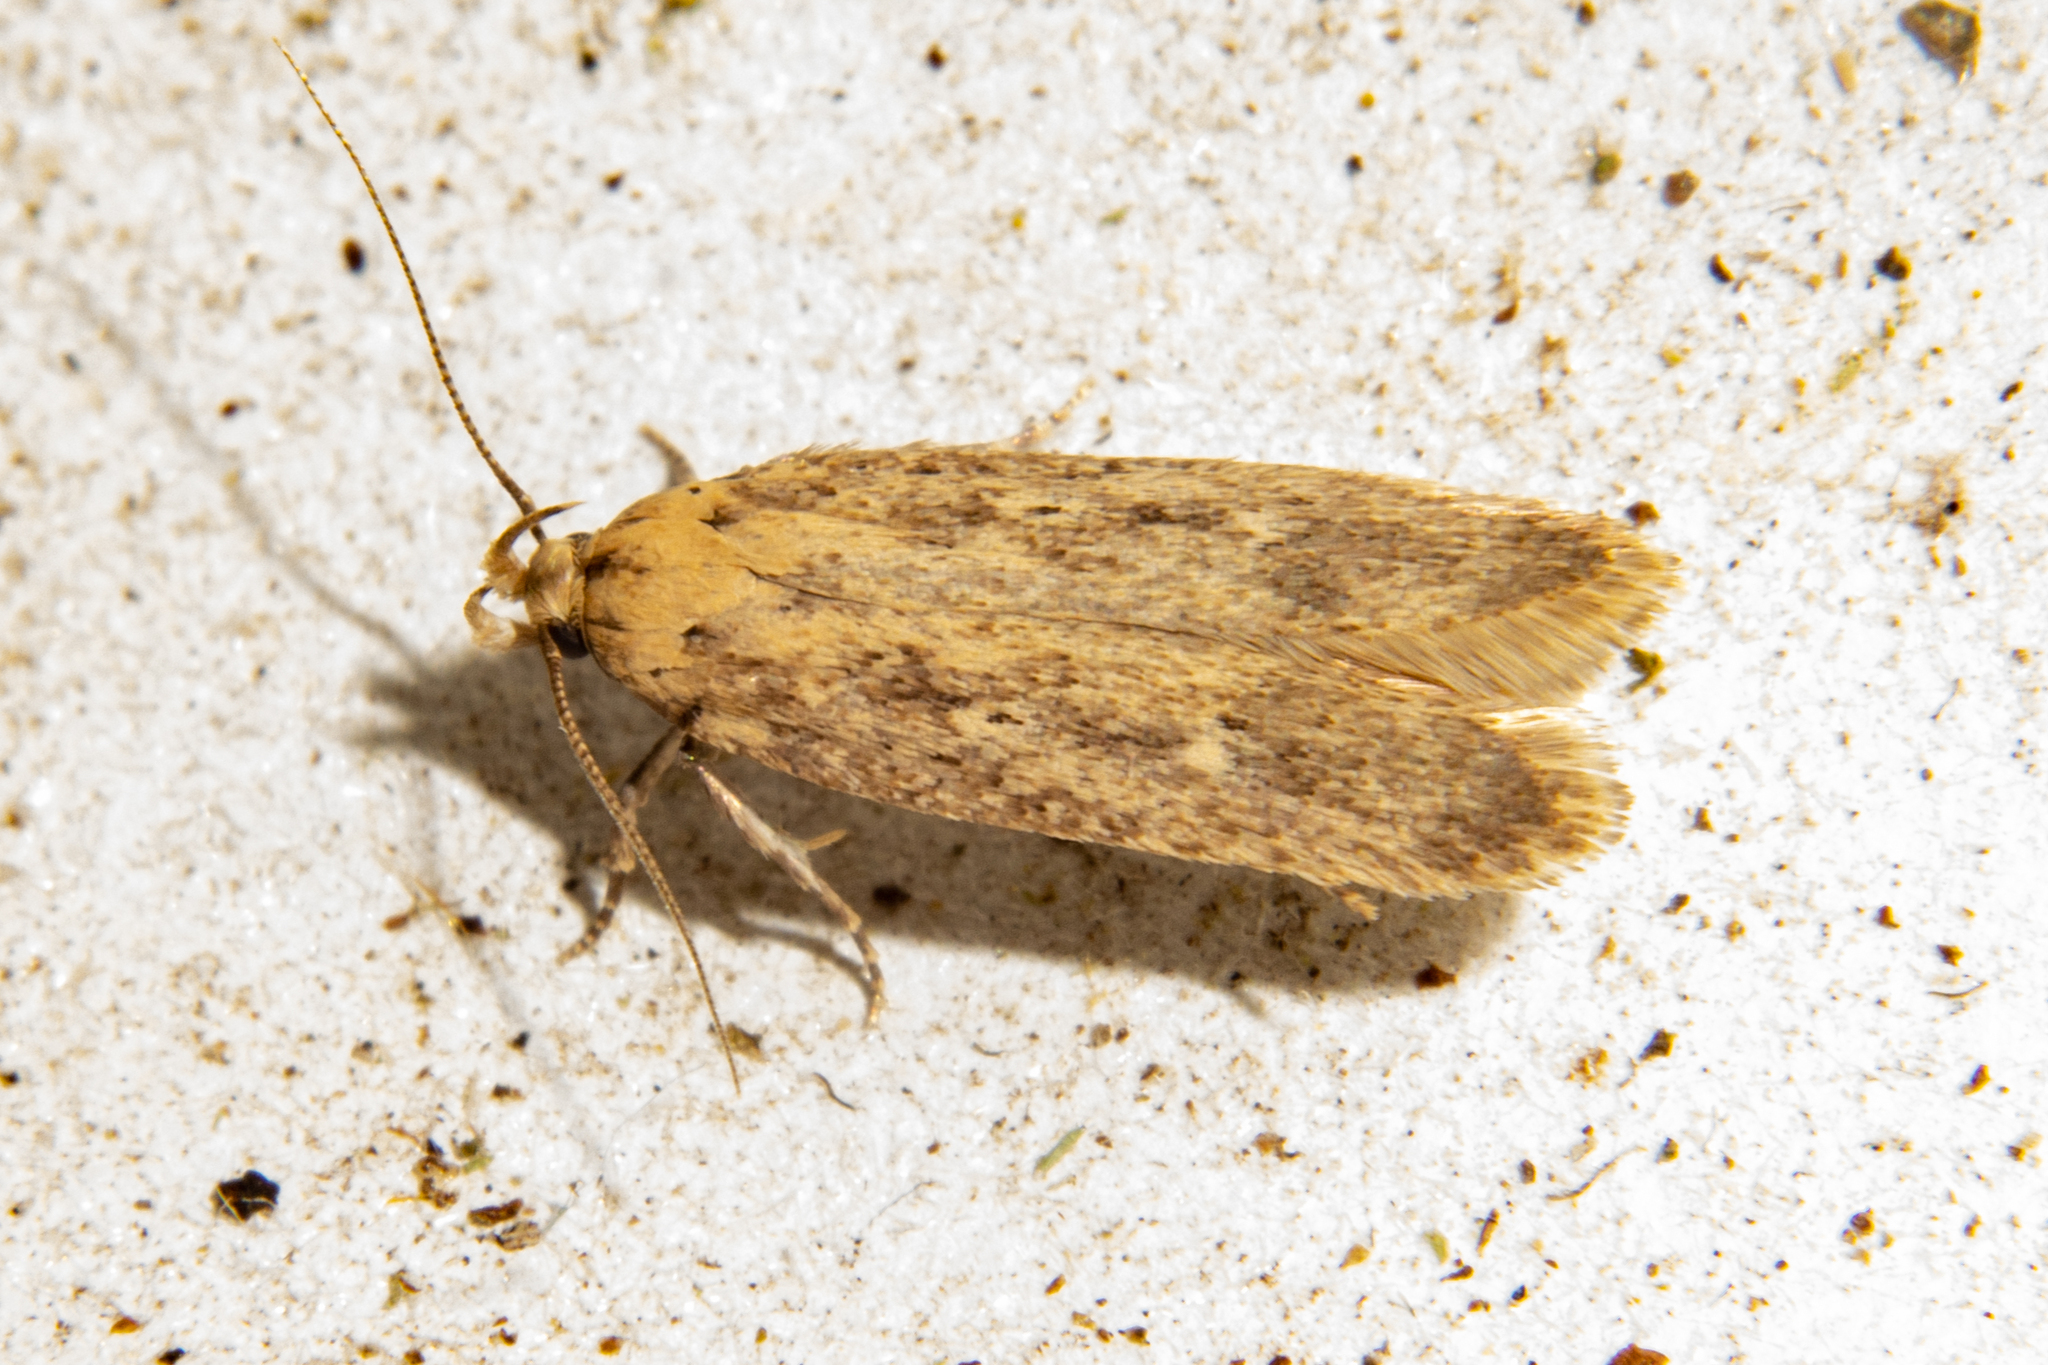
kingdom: Animalia
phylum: Arthropoda
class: Insecta
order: Lepidoptera
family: Gelechiidae
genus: Platyedra
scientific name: Platyedra subcinerea
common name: Moth
